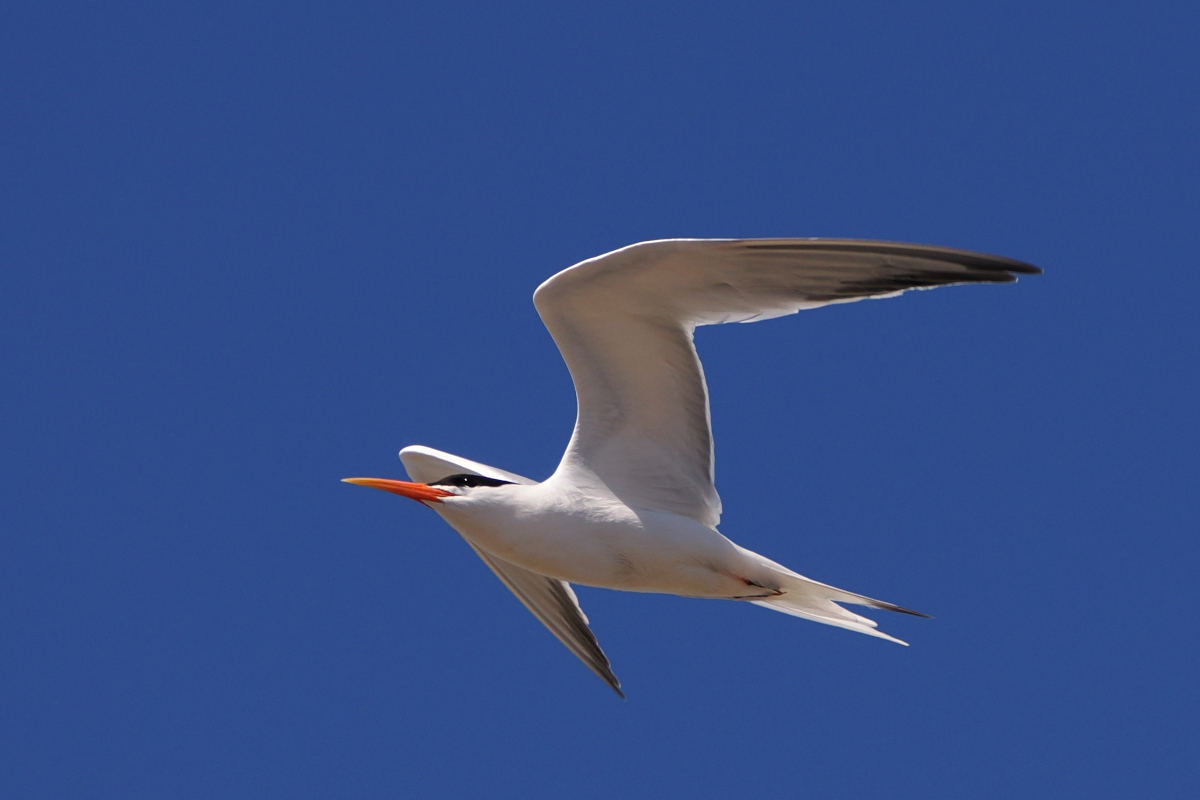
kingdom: Animalia
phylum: Chordata
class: Aves
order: Charadriiformes
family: Laridae
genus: Thalasseus
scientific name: Thalasseus elegans
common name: Elegant tern
